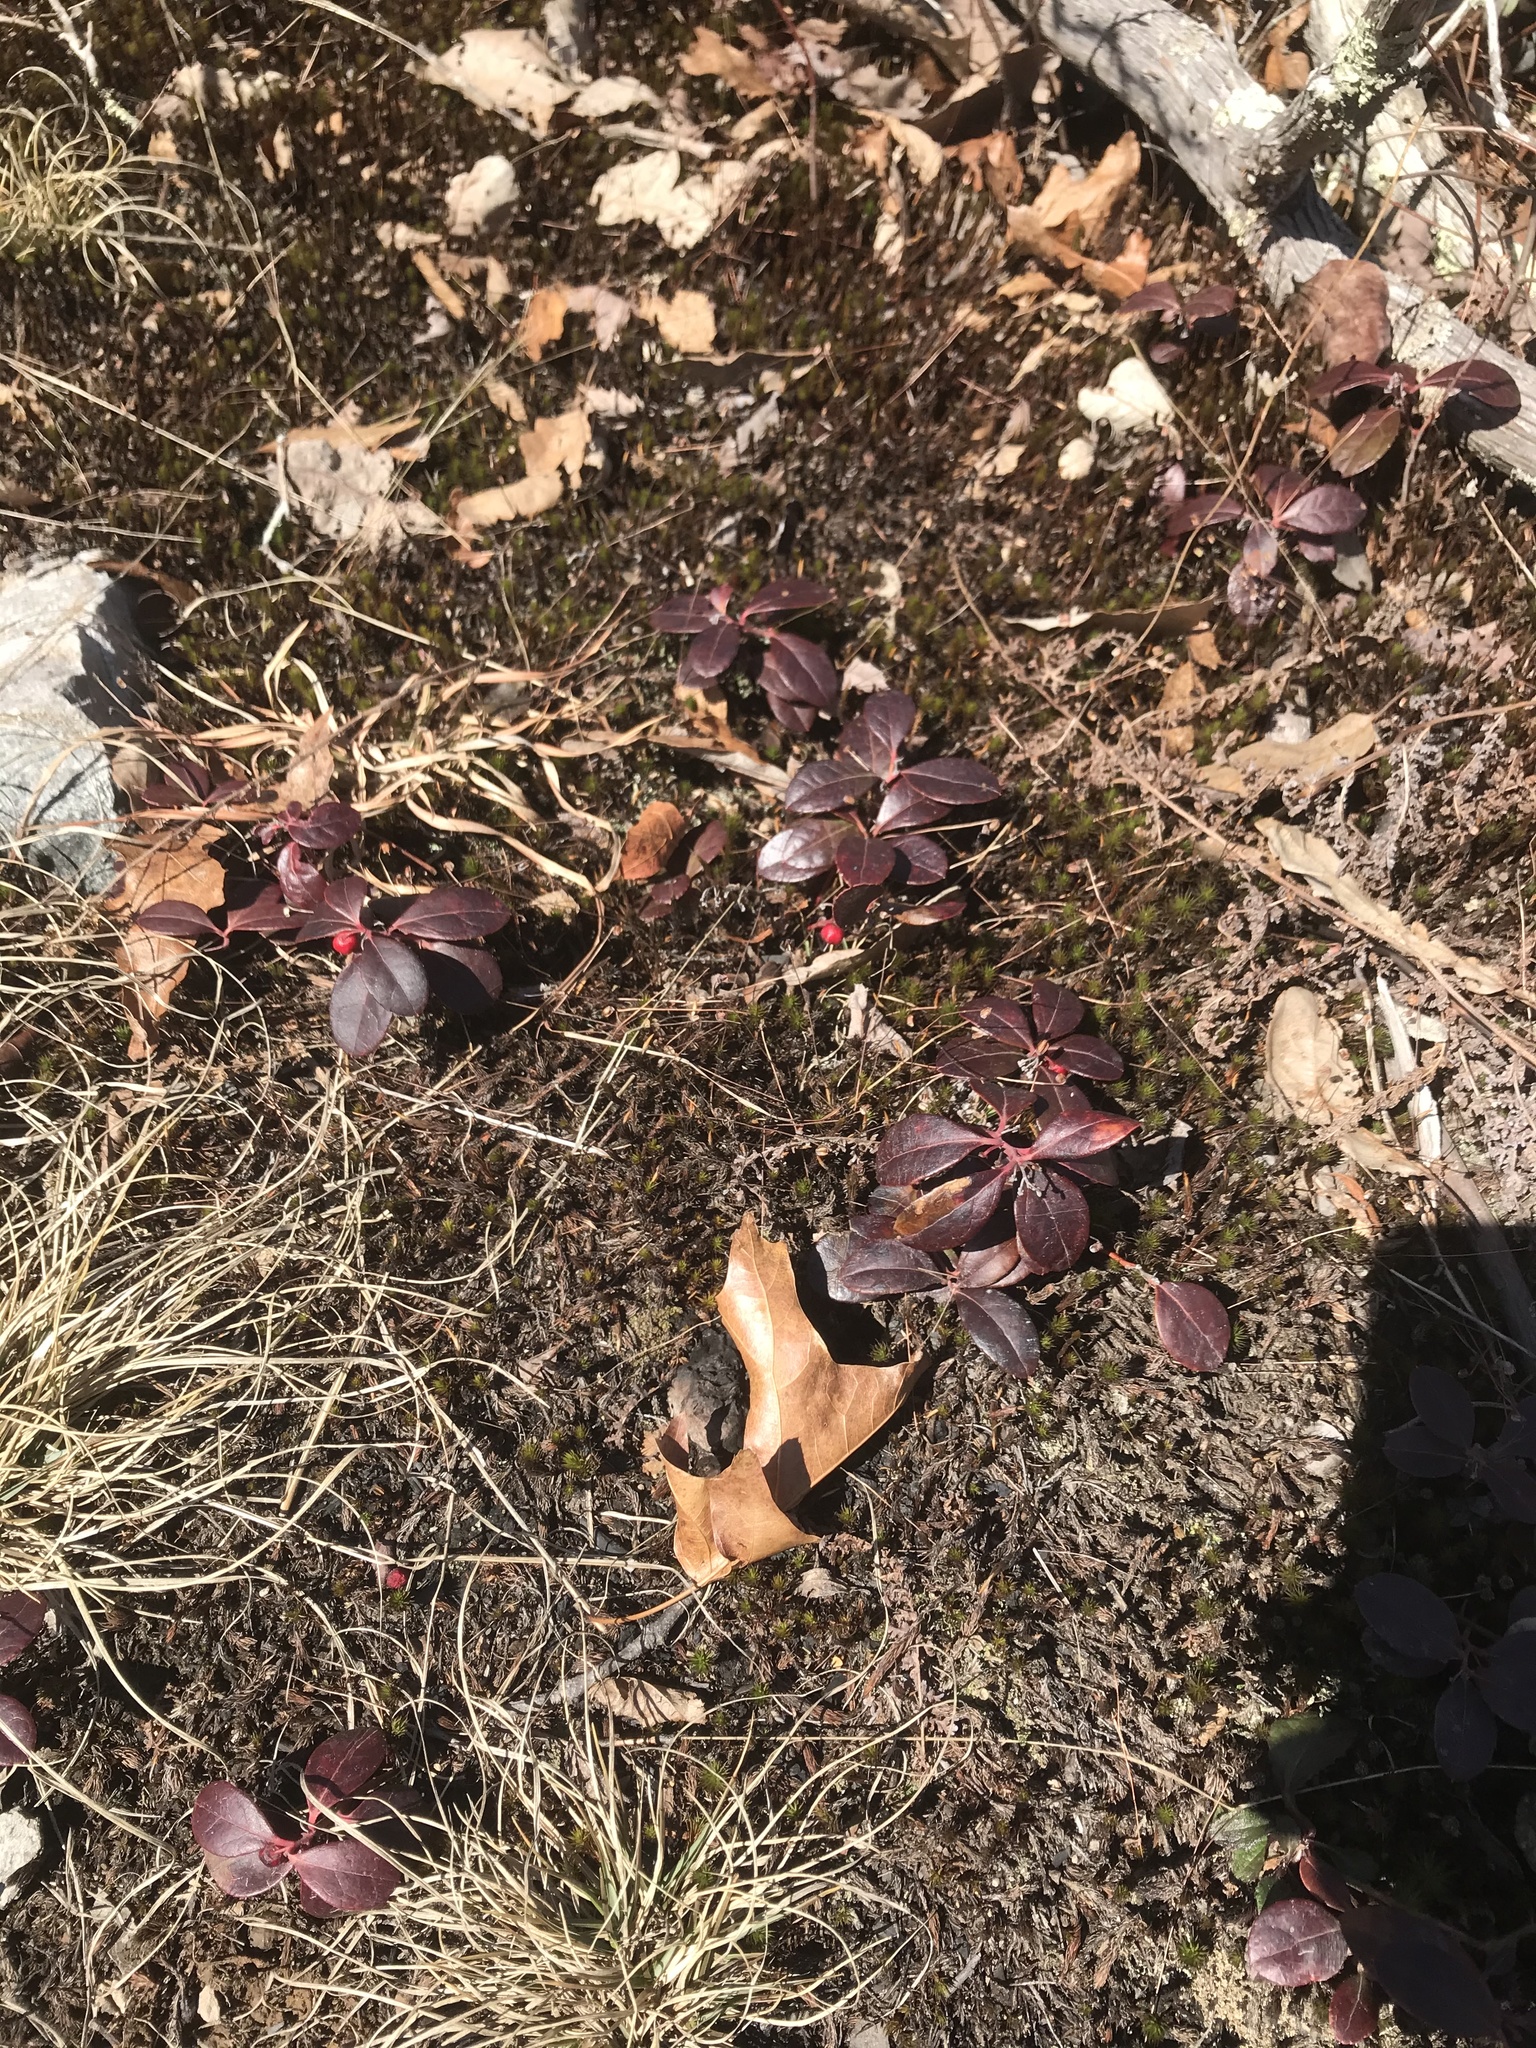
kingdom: Plantae
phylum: Tracheophyta
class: Magnoliopsida
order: Ericales
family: Ericaceae
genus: Gaultheria
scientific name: Gaultheria procumbens
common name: Checkerberry
